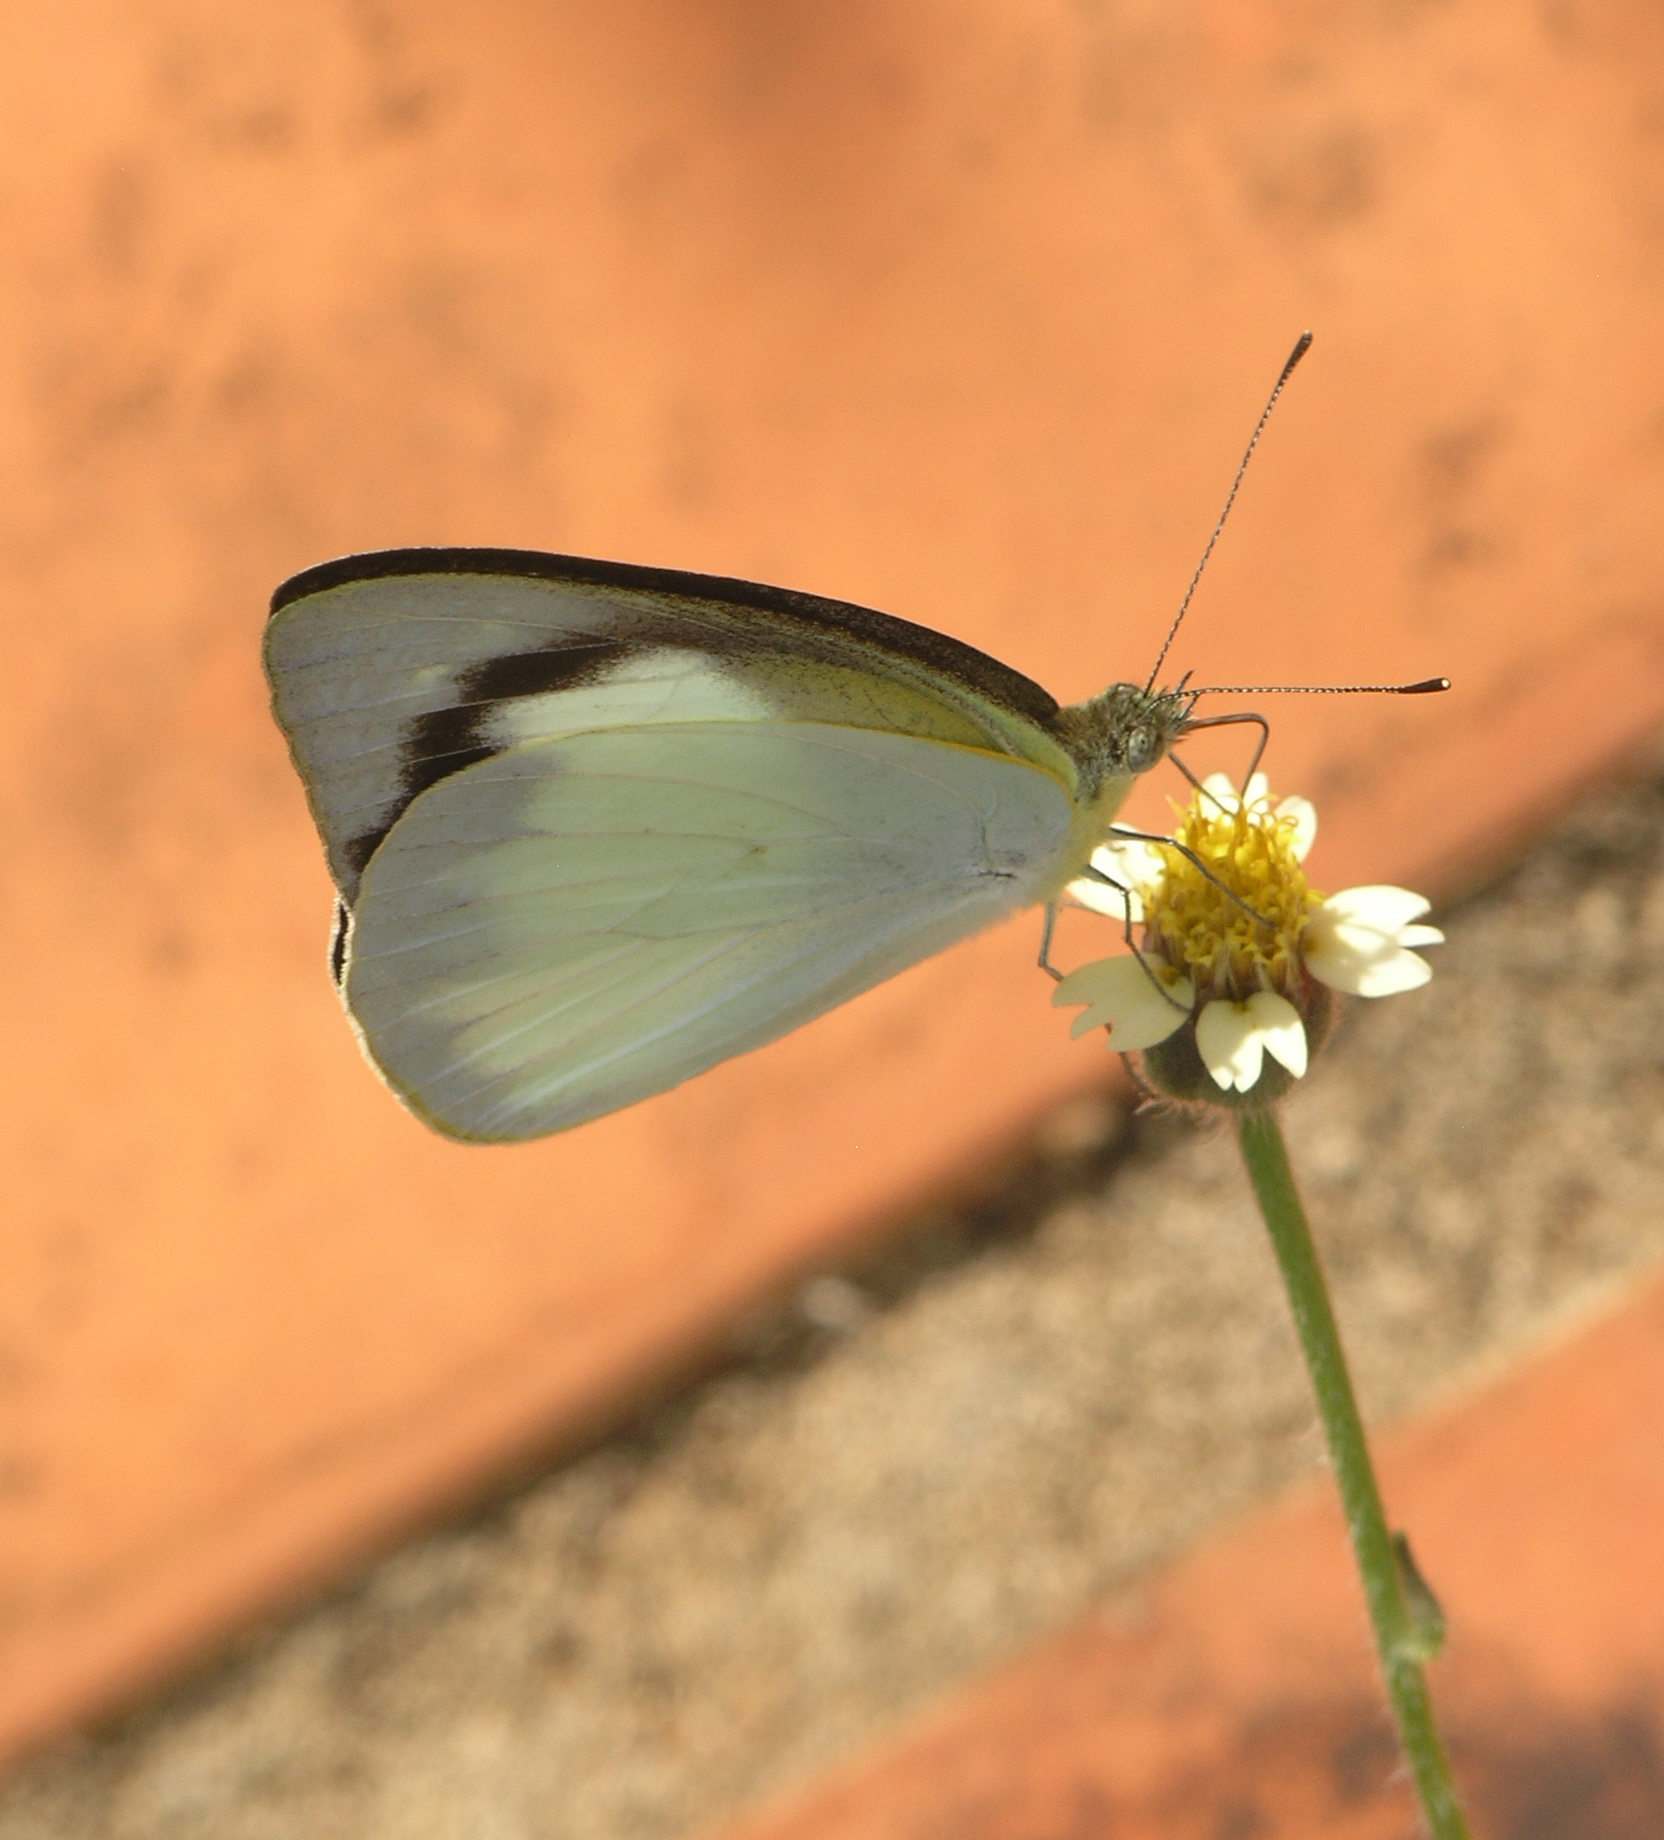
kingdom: Animalia
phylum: Arthropoda
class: Insecta
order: Lepidoptera
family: Pieridae
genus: Appias
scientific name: Appias albina
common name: Common albatross
